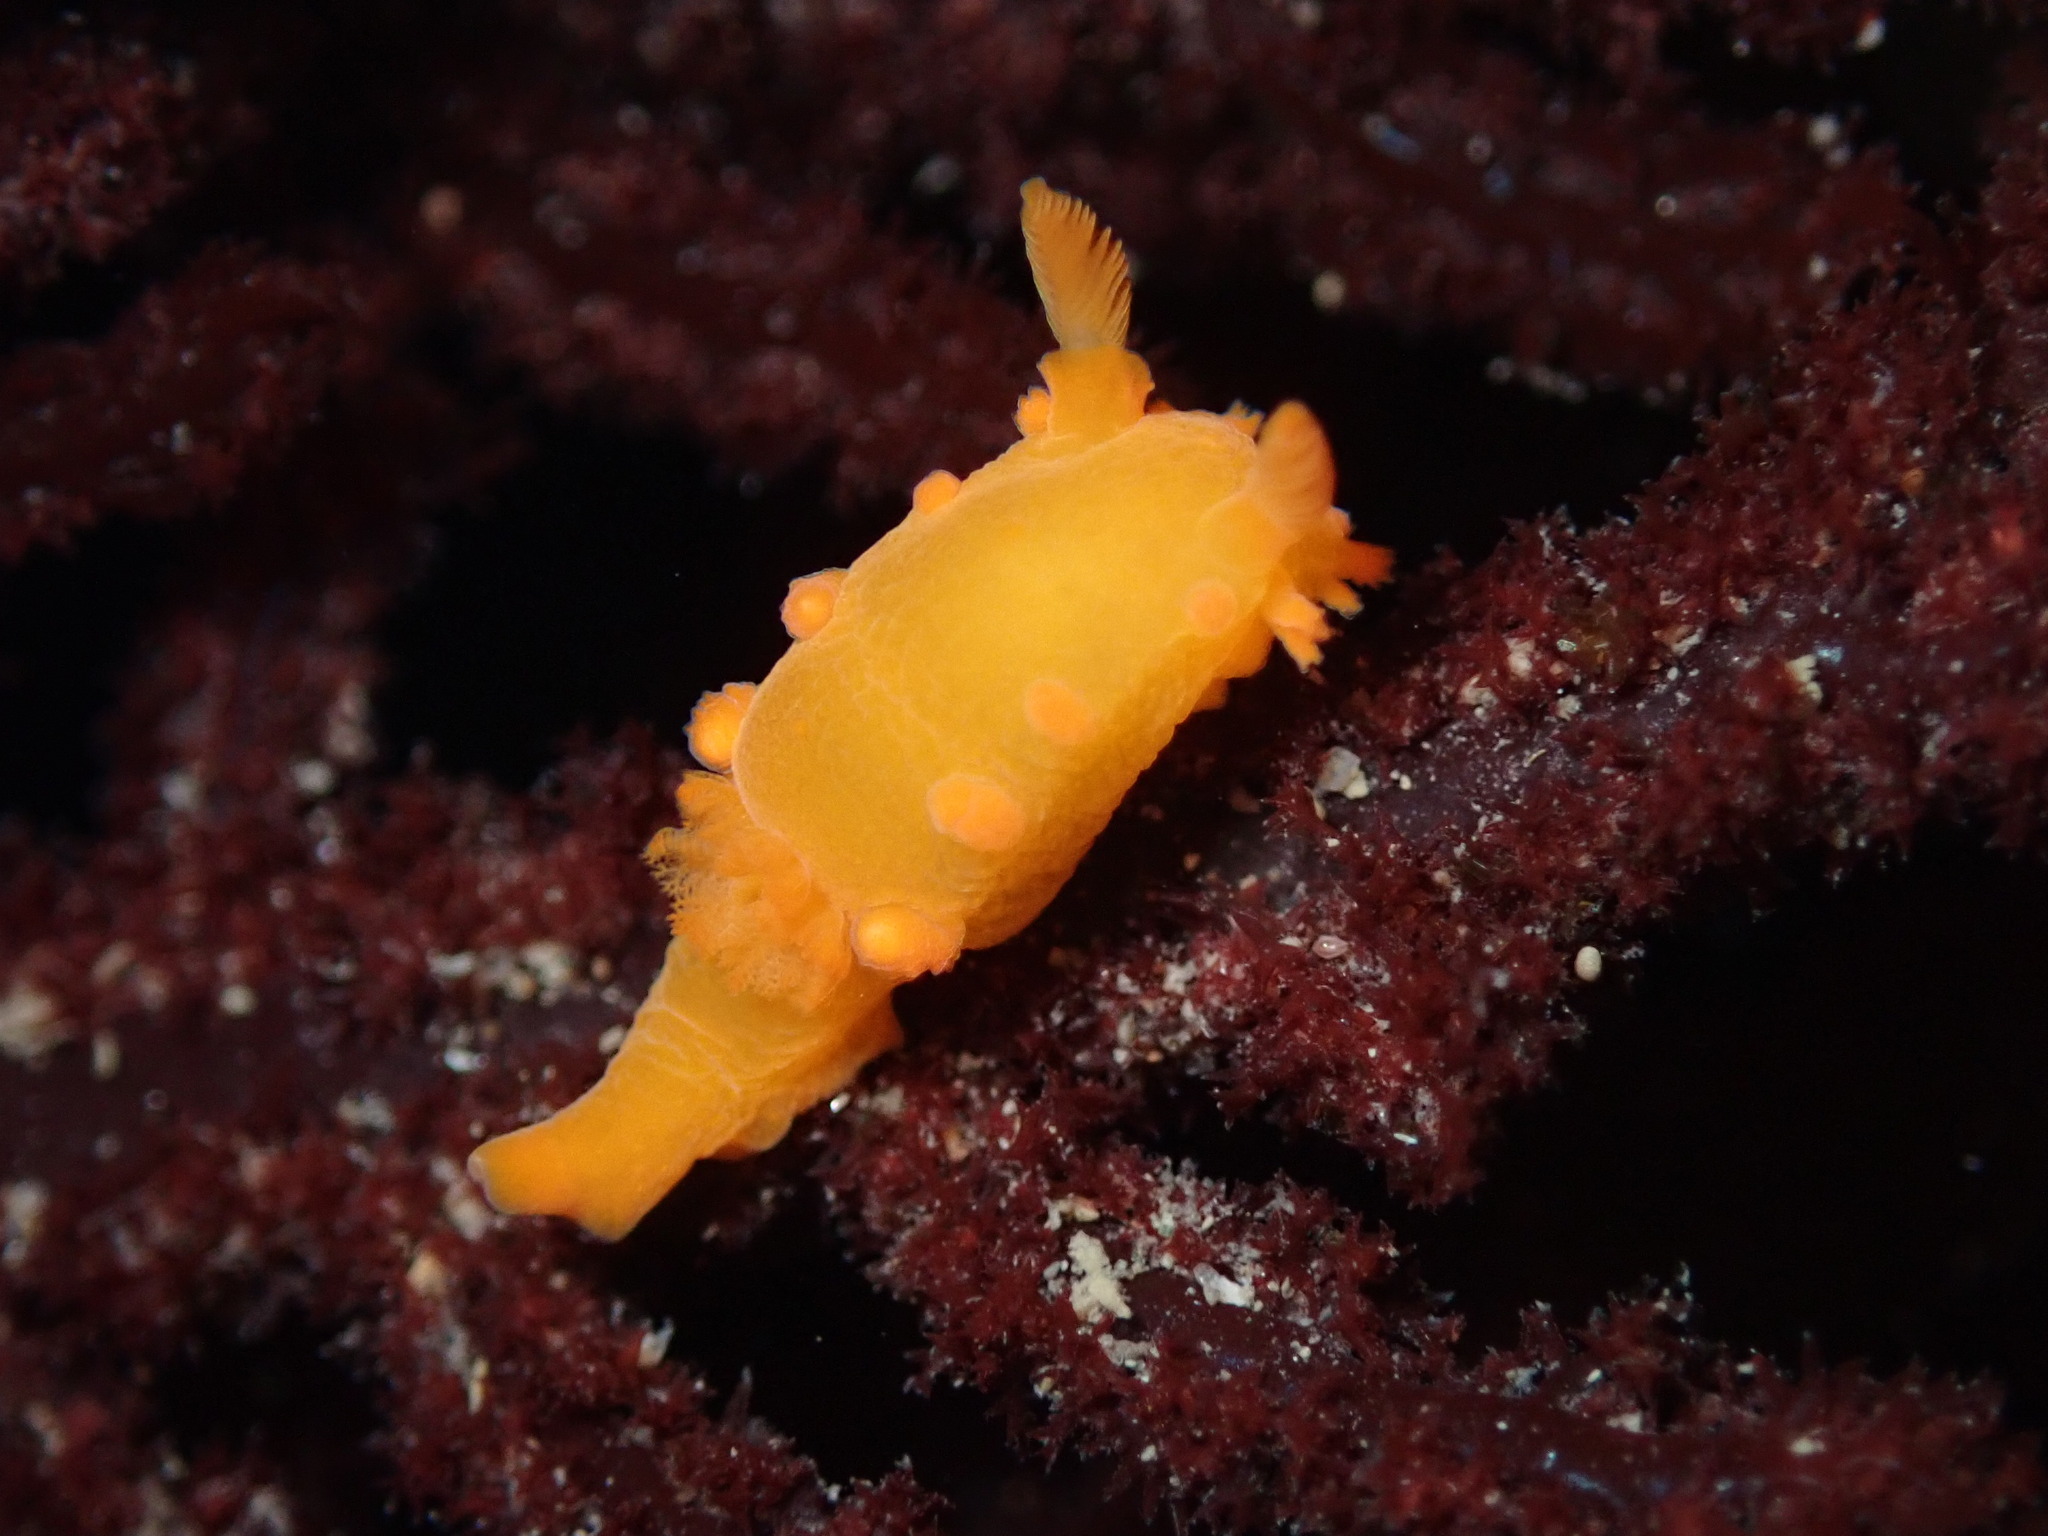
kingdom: Animalia
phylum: Mollusca
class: Gastropoda
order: Nudibranchia
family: Polyceridae
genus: Triopha
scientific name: Triopha maculata
